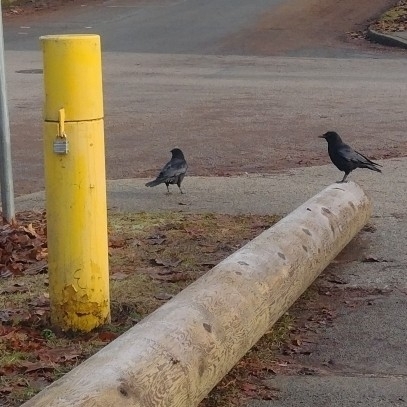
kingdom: Animalia
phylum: Chordata
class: Aves
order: Passeriformes
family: Corvidae
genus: Corvus
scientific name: Corvus brachyrhynchos
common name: American crow
